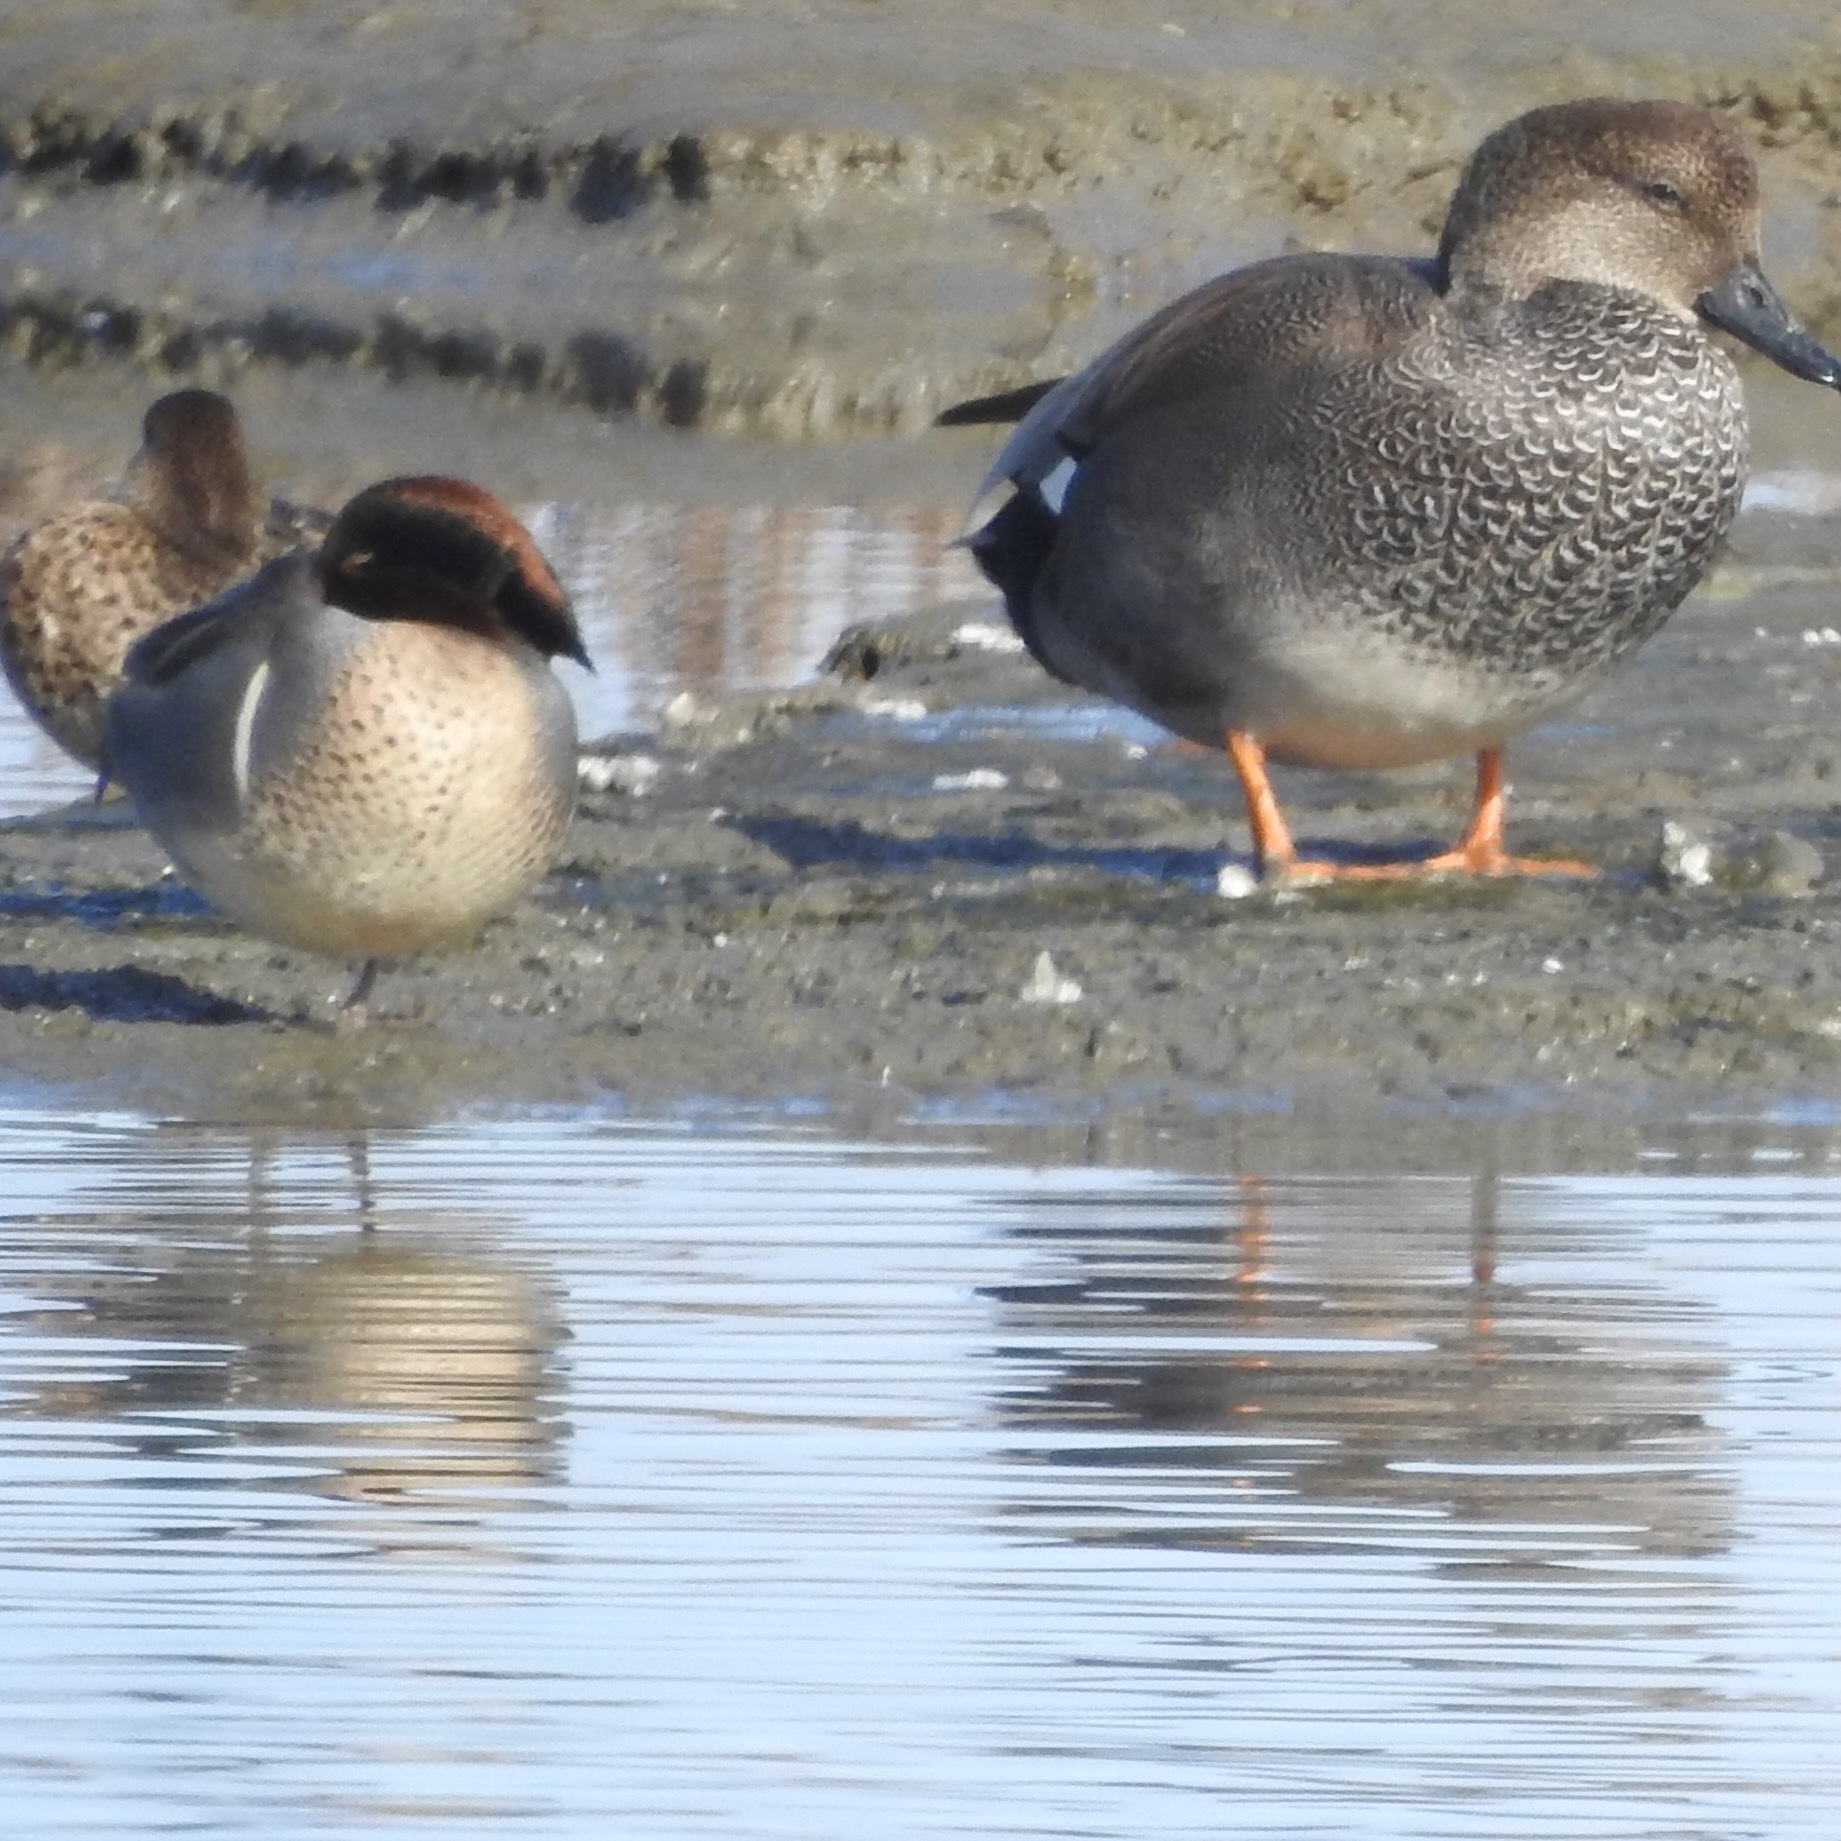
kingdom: Animalia
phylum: Chordata
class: Aves
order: Anseriformes
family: Anatidae
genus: Mareca
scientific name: Mareca strepera
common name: Gadwall
